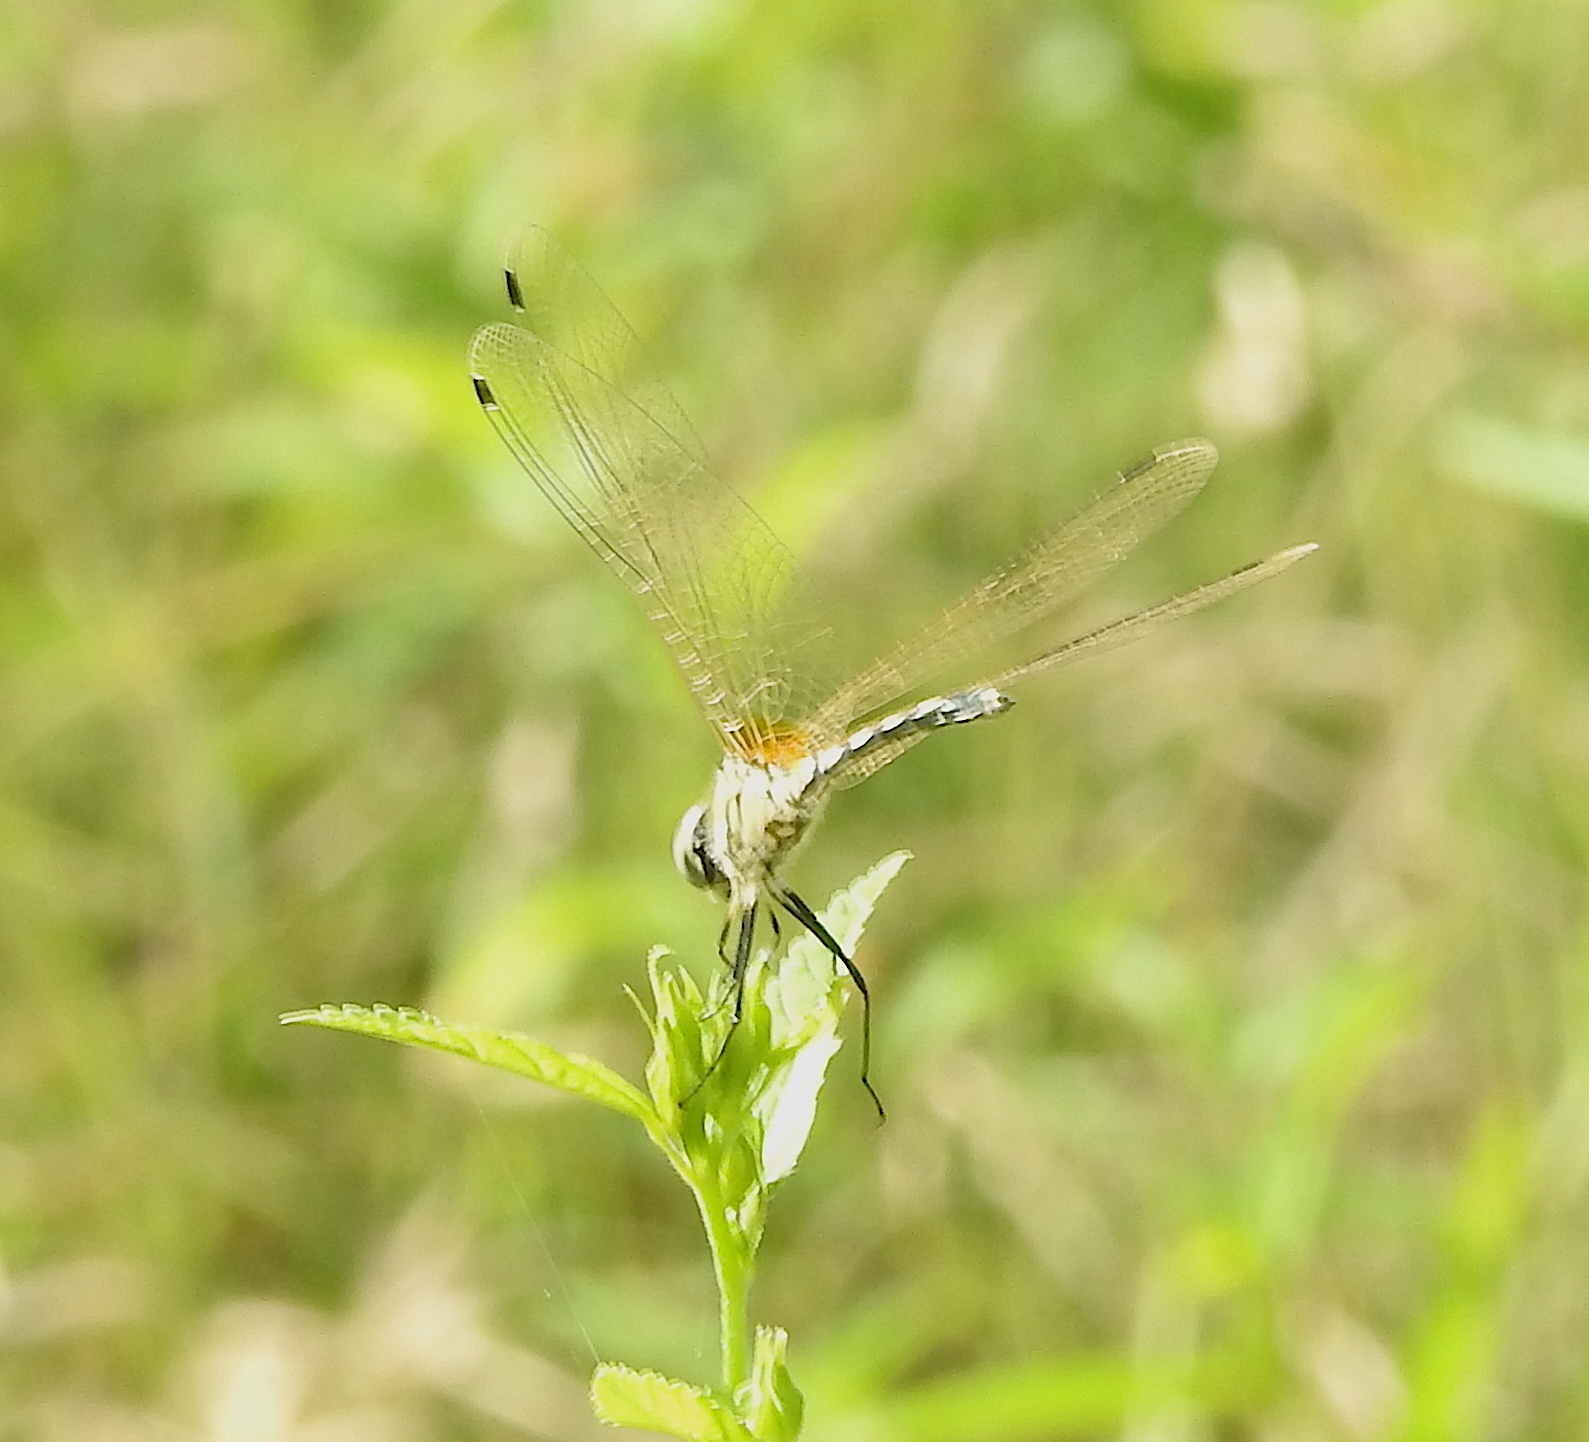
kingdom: Animalia
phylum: Arthropoda
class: Insecta
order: Odonata
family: Libellulidae
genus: Trithemis
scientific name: Trithemis pallidinervis
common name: Dancing dropwing
